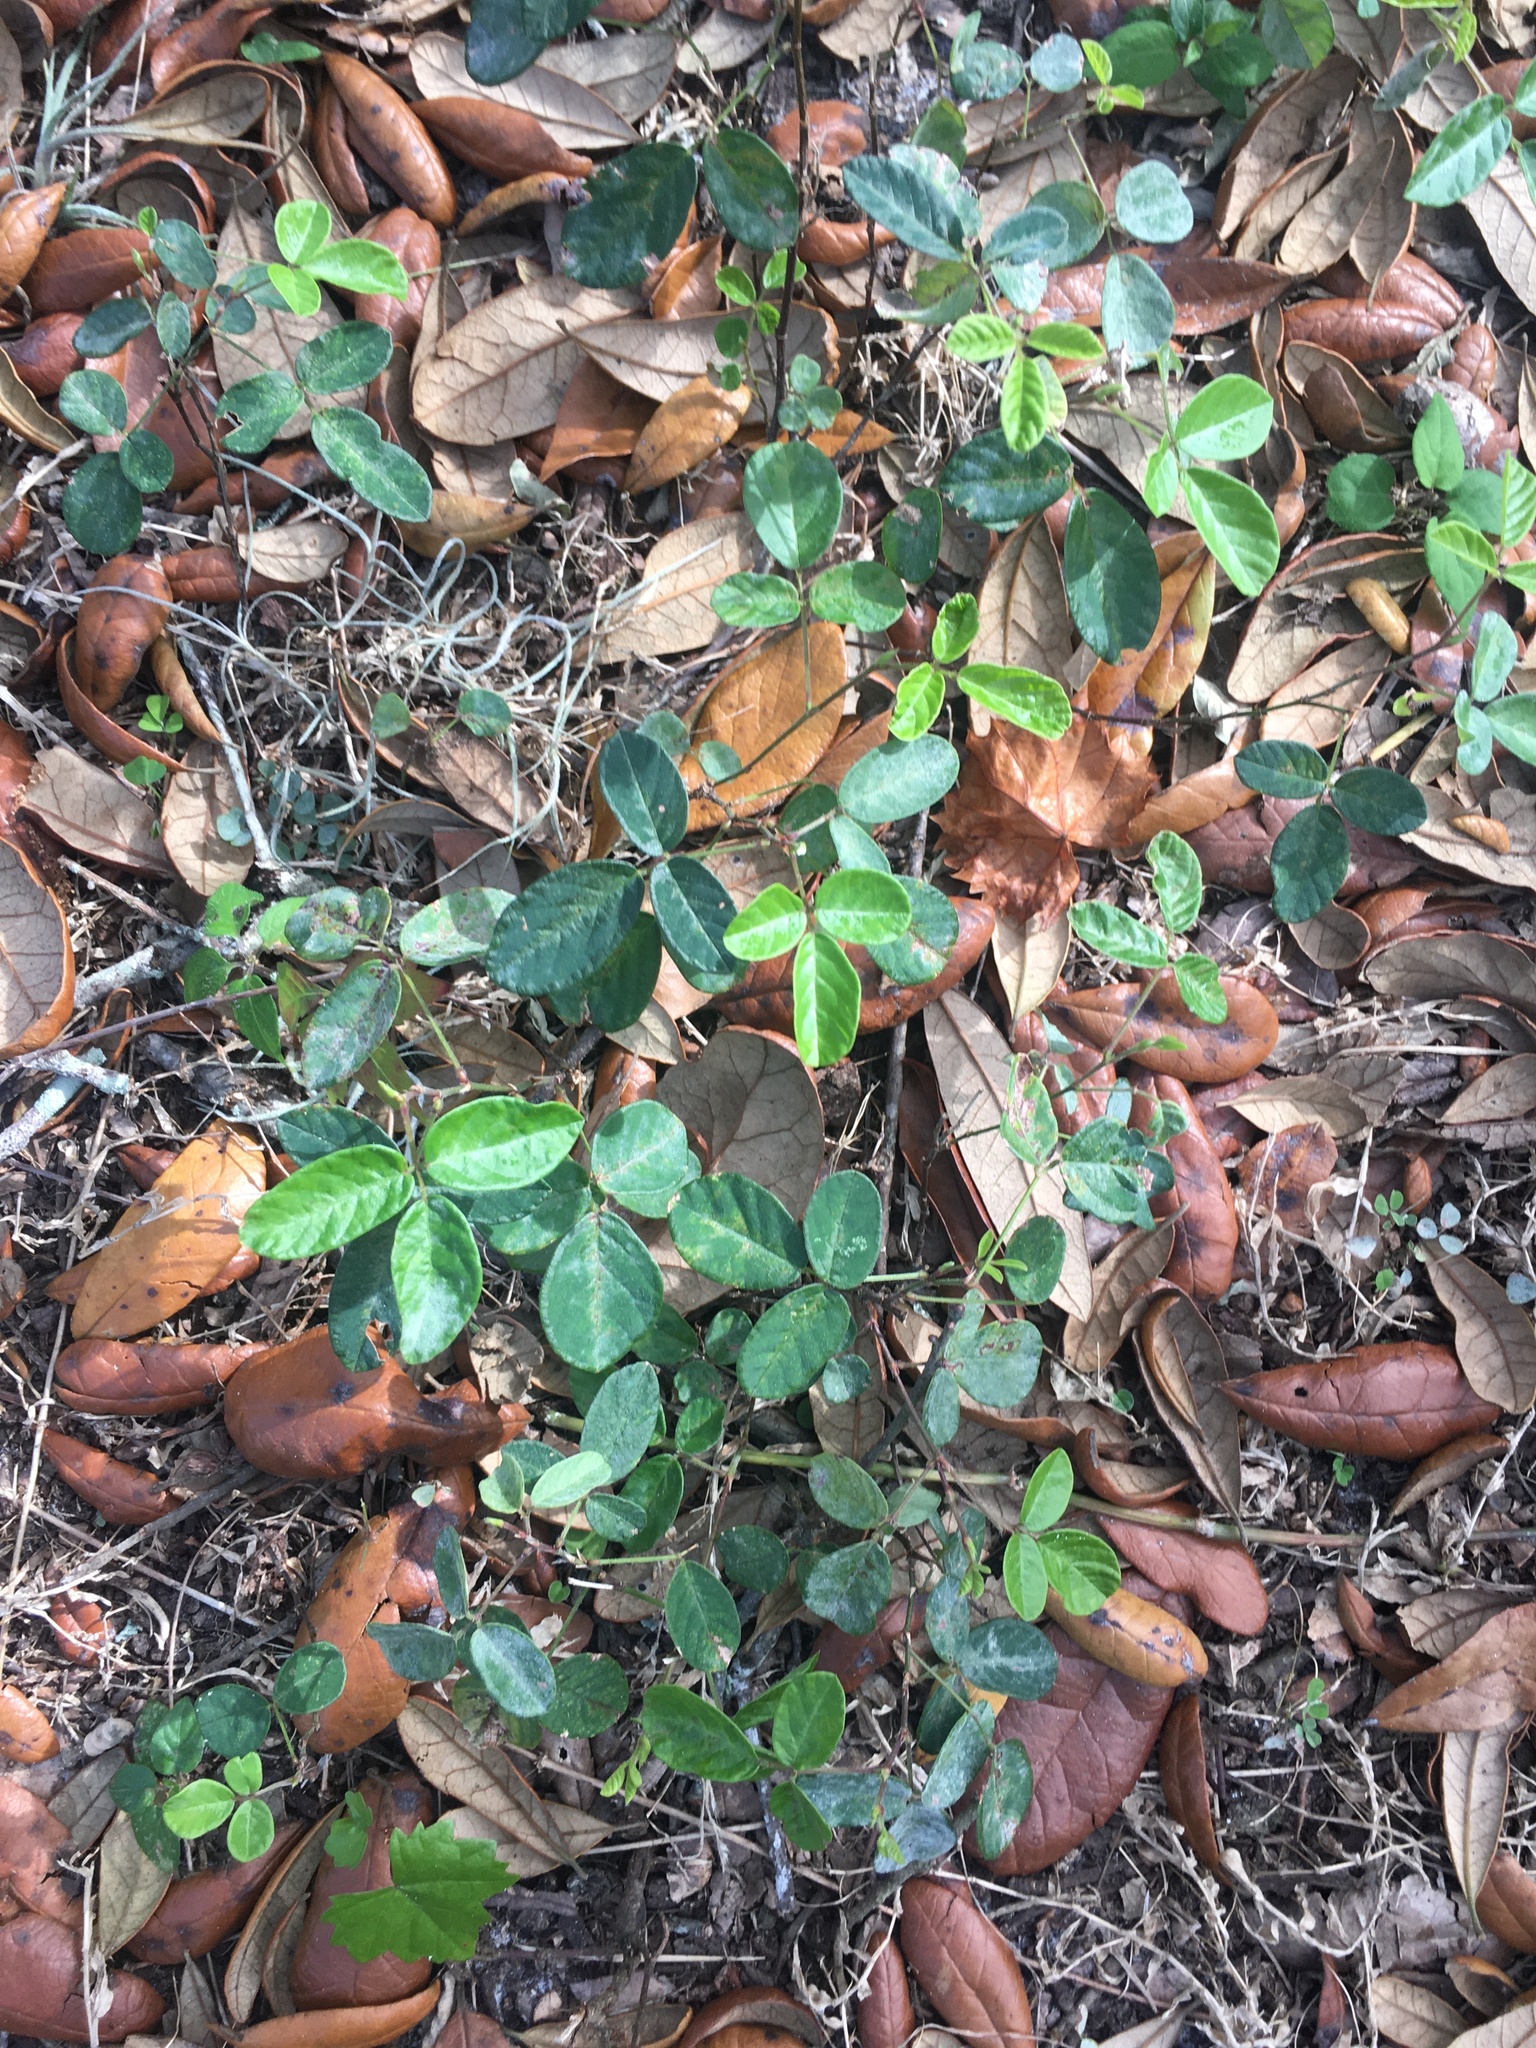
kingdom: Plantae
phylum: Tracheophyta
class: Magnoliopsida
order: Fabales
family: Fabaceae
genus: Desmodium
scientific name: Desmodium incanum
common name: Tickclover
